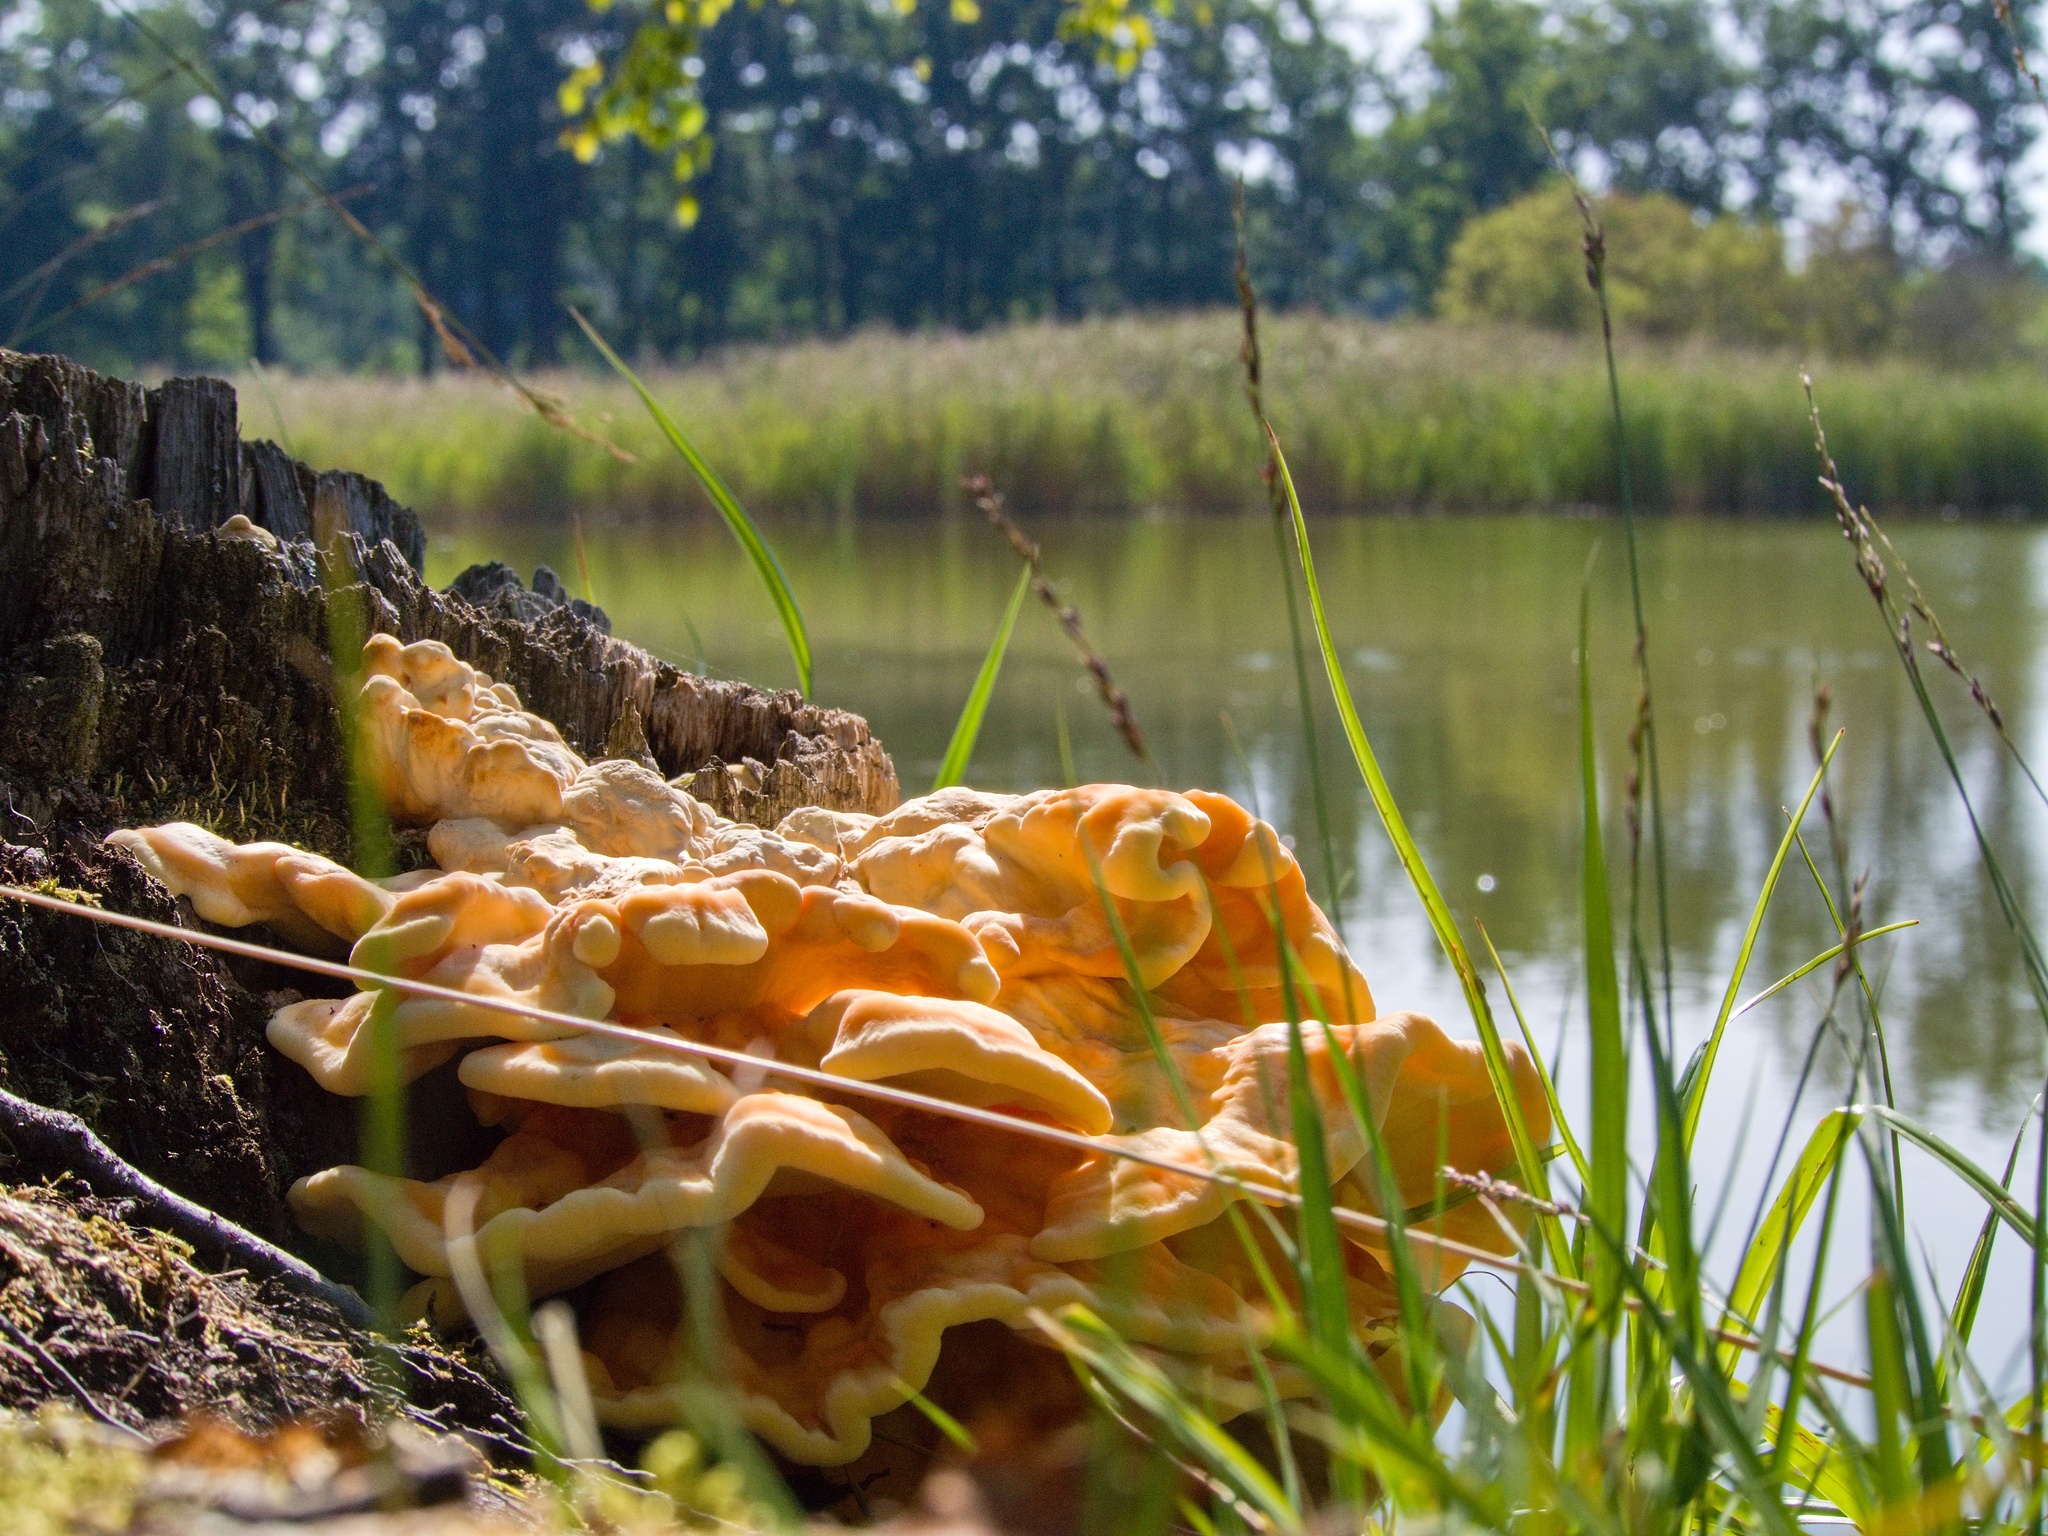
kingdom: Fungi
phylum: Basidiomycota
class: Agaricomycetes
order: Polyporales
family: Laetiporaceae
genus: Laetiporus
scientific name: Laetiporus sulphureus
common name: Chicken of the woods
